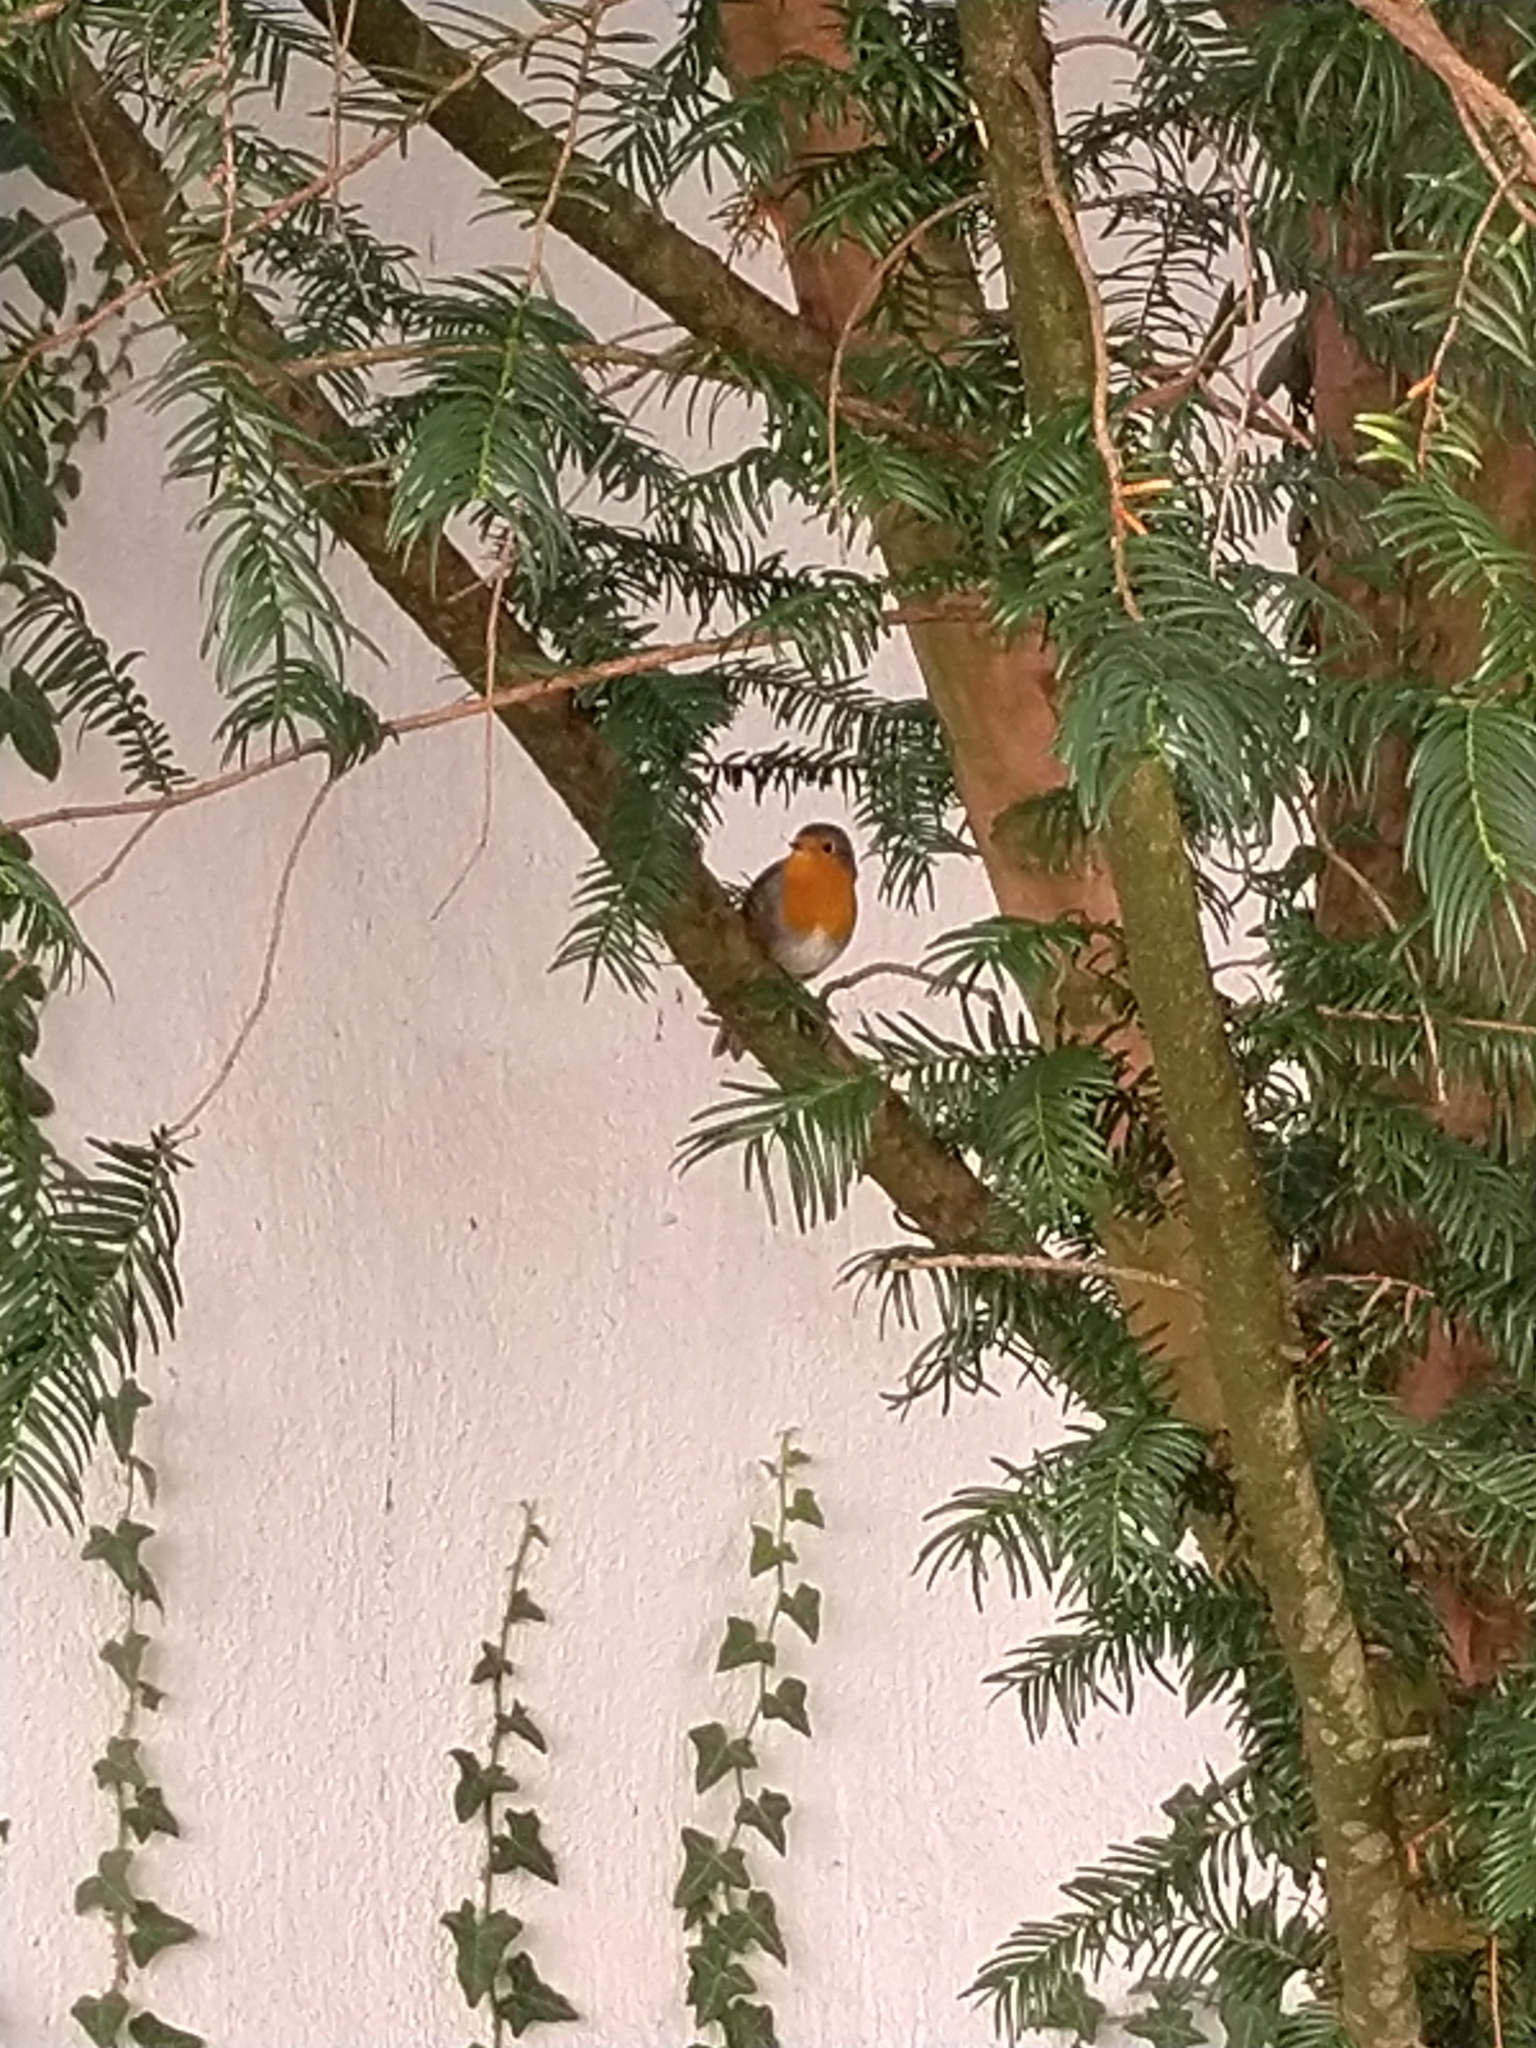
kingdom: Animalia
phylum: Chordata
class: Aves
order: Passeriformes
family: Muscicapidae
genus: Erithacus
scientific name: Erithacus rubecula
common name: European robin
